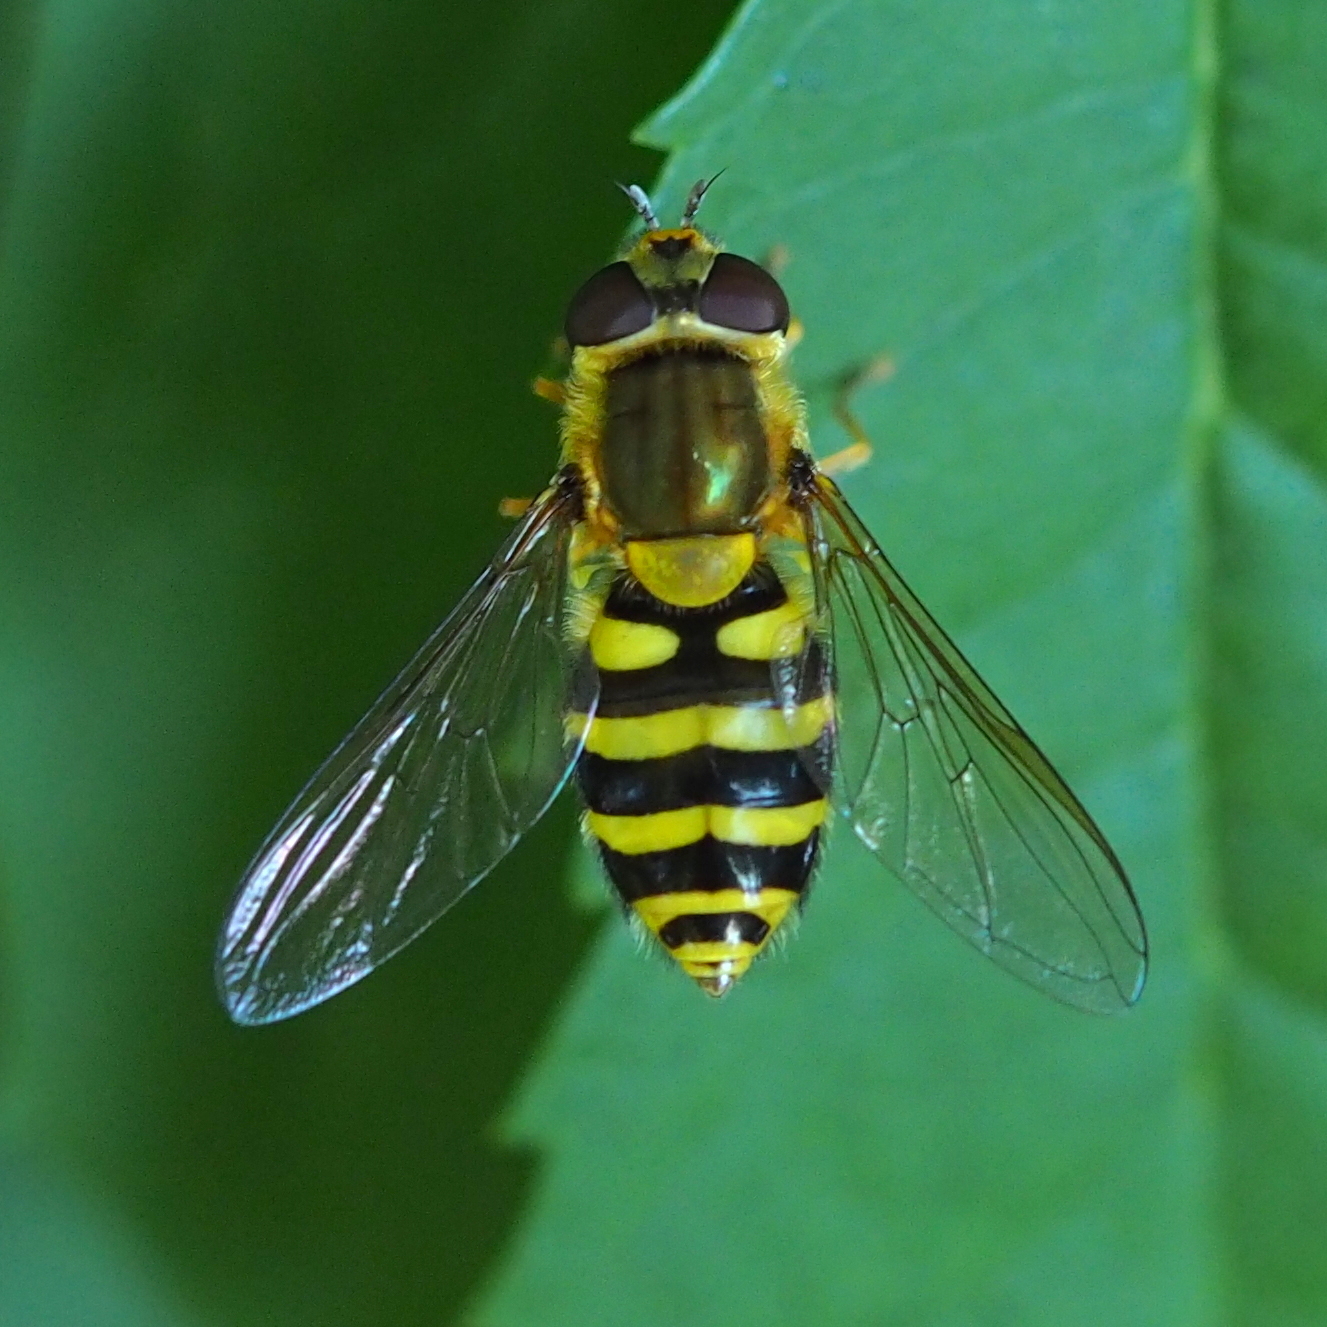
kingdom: Animalia
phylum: Arthropoda
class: Insecta
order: Diptera
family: Syrphidae
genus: Syrphus
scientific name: Syrphus
